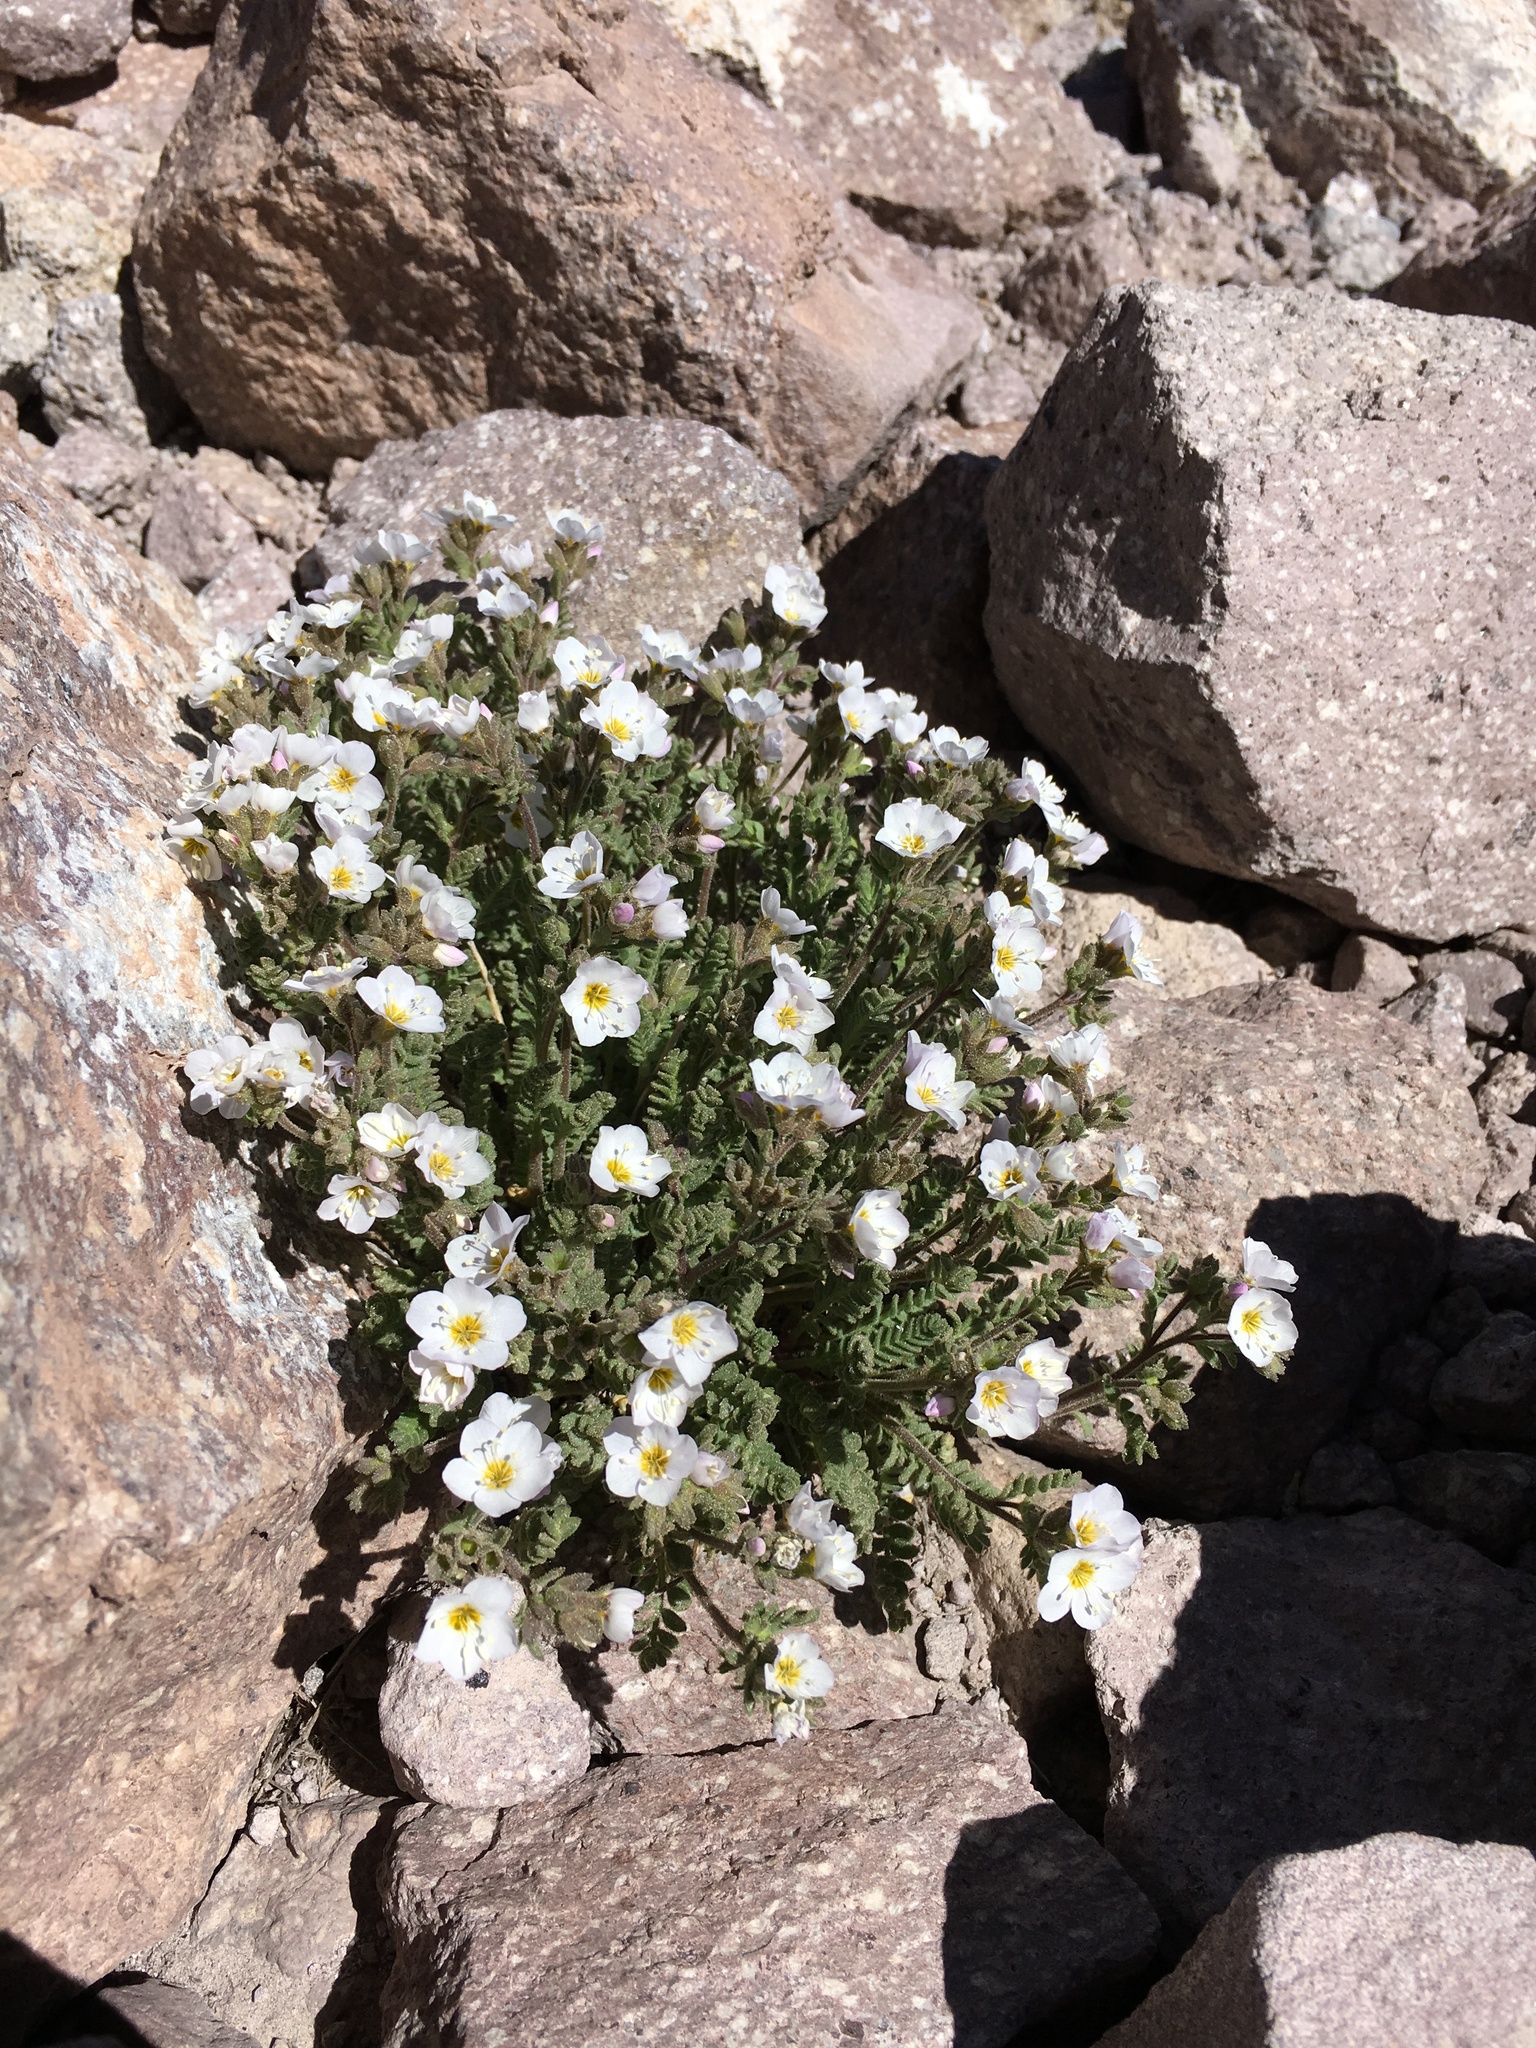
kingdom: Plantae
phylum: Tracheophyta
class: Magnoliopsida
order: Ericales
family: Polemoniaceae
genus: Polemonium
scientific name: Polemonium pulcherrimum
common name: Short jacob's-ladder
